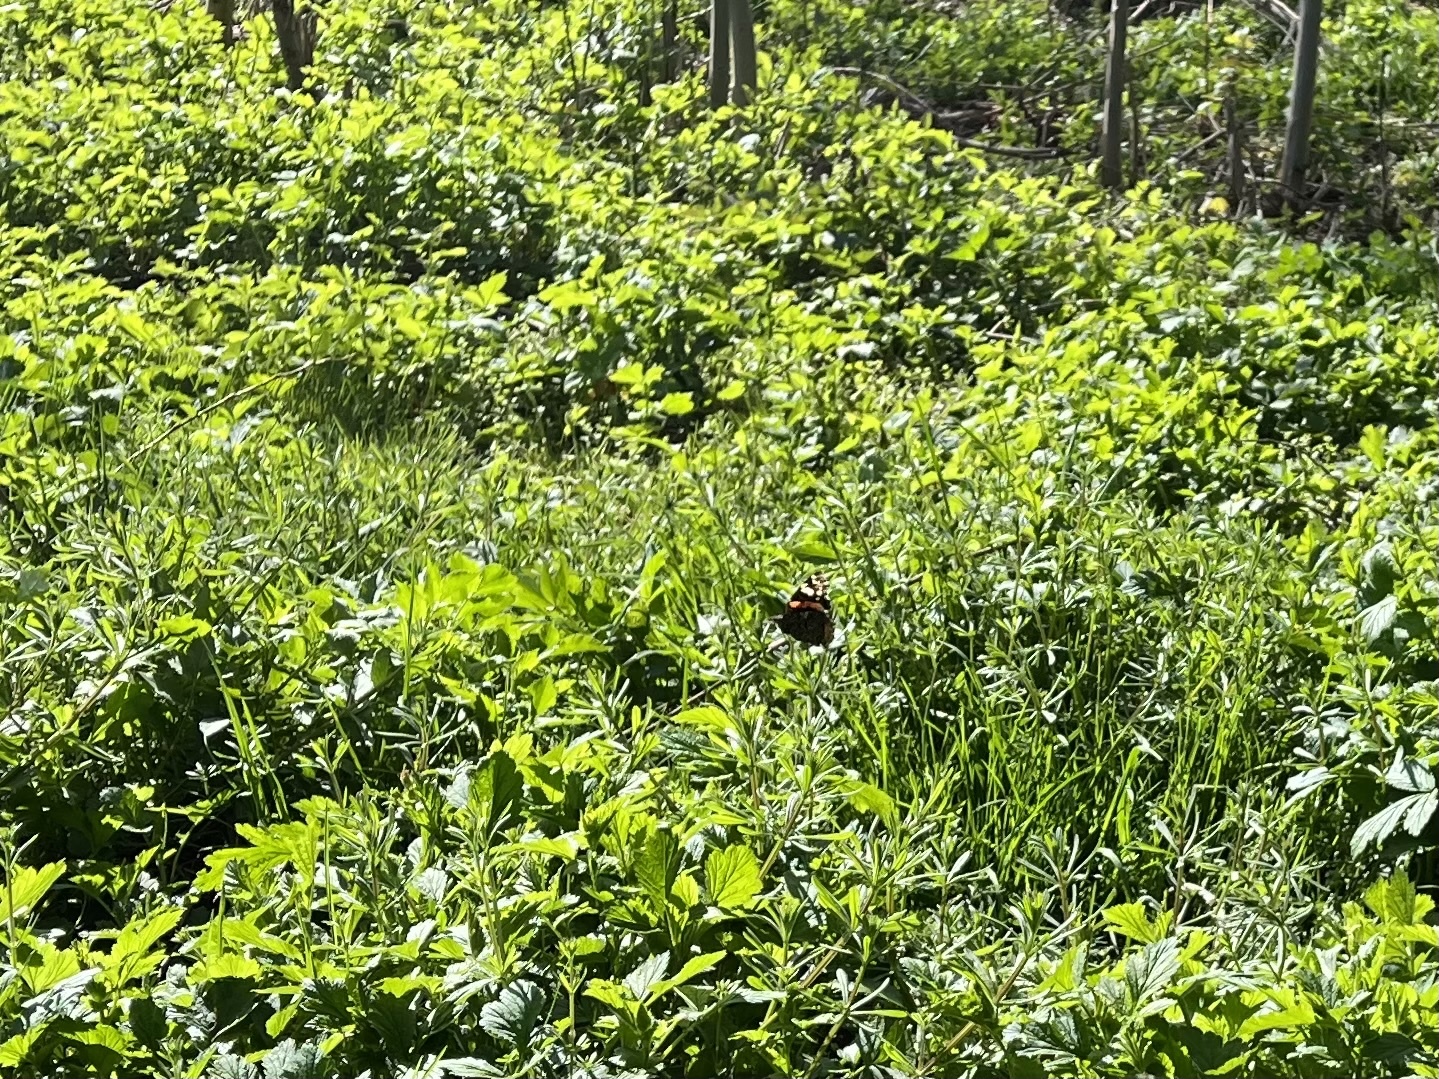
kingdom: Animalia
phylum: Arthropoda
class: Insecta
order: Lepidoptera
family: Nymphalidae
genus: Vanessa
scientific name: Vanessa atalanta
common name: Red admiral
